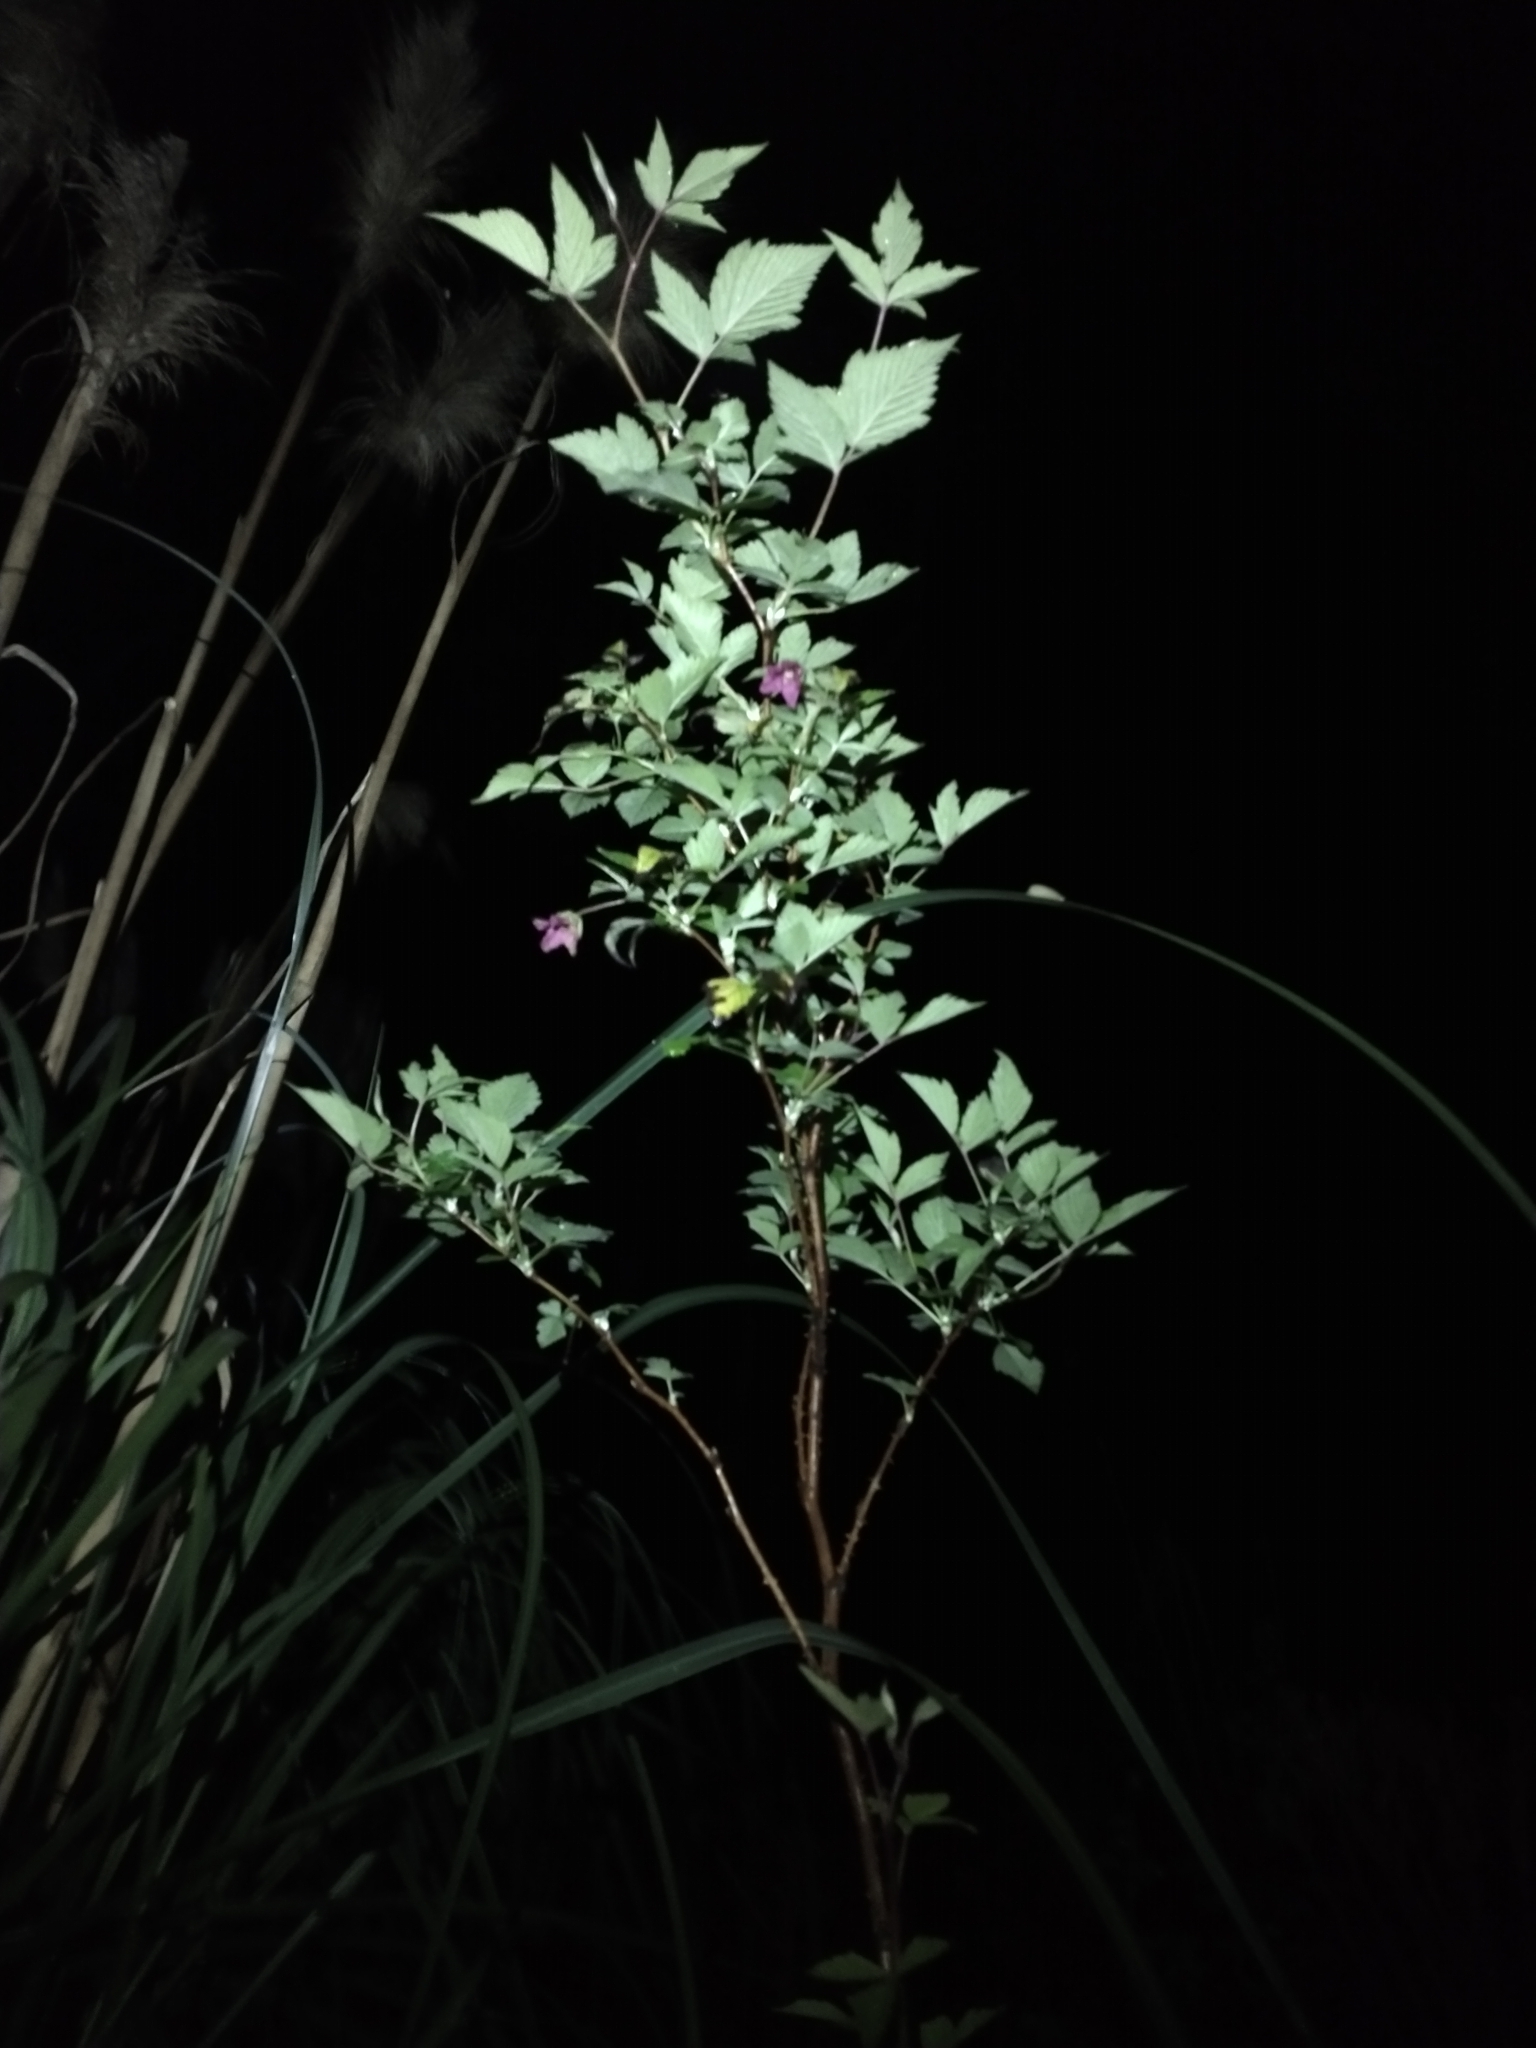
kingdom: Plantae
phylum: Tracheophyta
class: Magnoliopsida
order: Rosales
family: Rosaceae
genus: Rubus
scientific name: Rubus spectabilis
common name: Salmonberry
